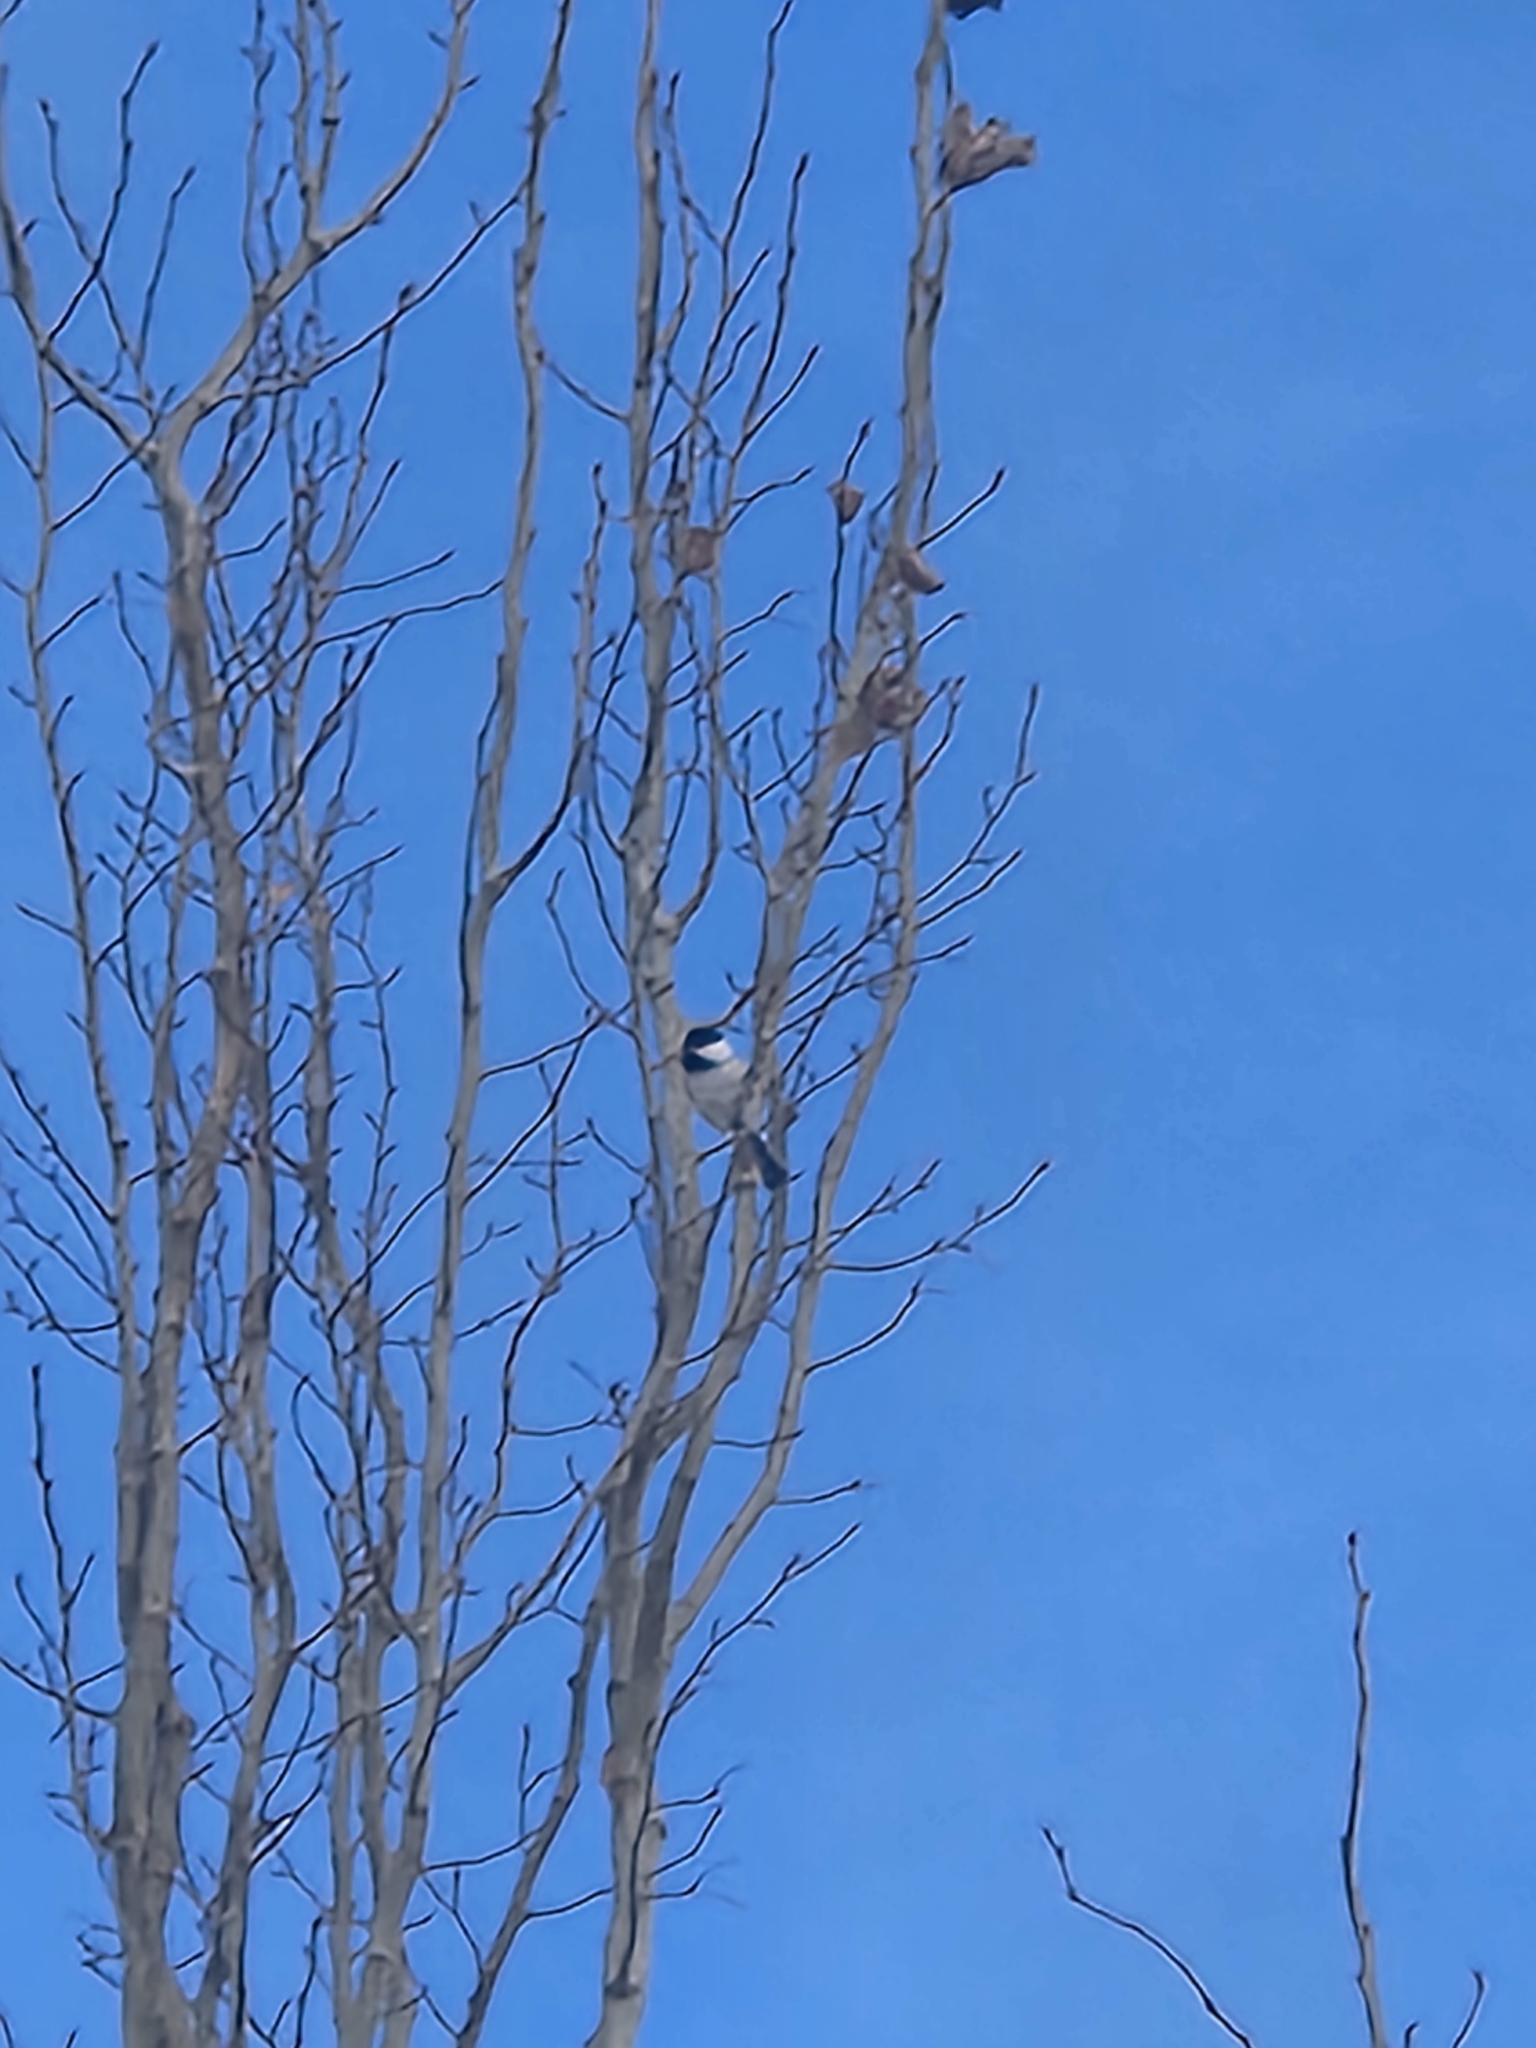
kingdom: Animalia
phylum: Chordata
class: Aves
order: Passeriformes
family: Paridae
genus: Poecile
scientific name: Poecile atricapillus
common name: Black-capped chickadee
